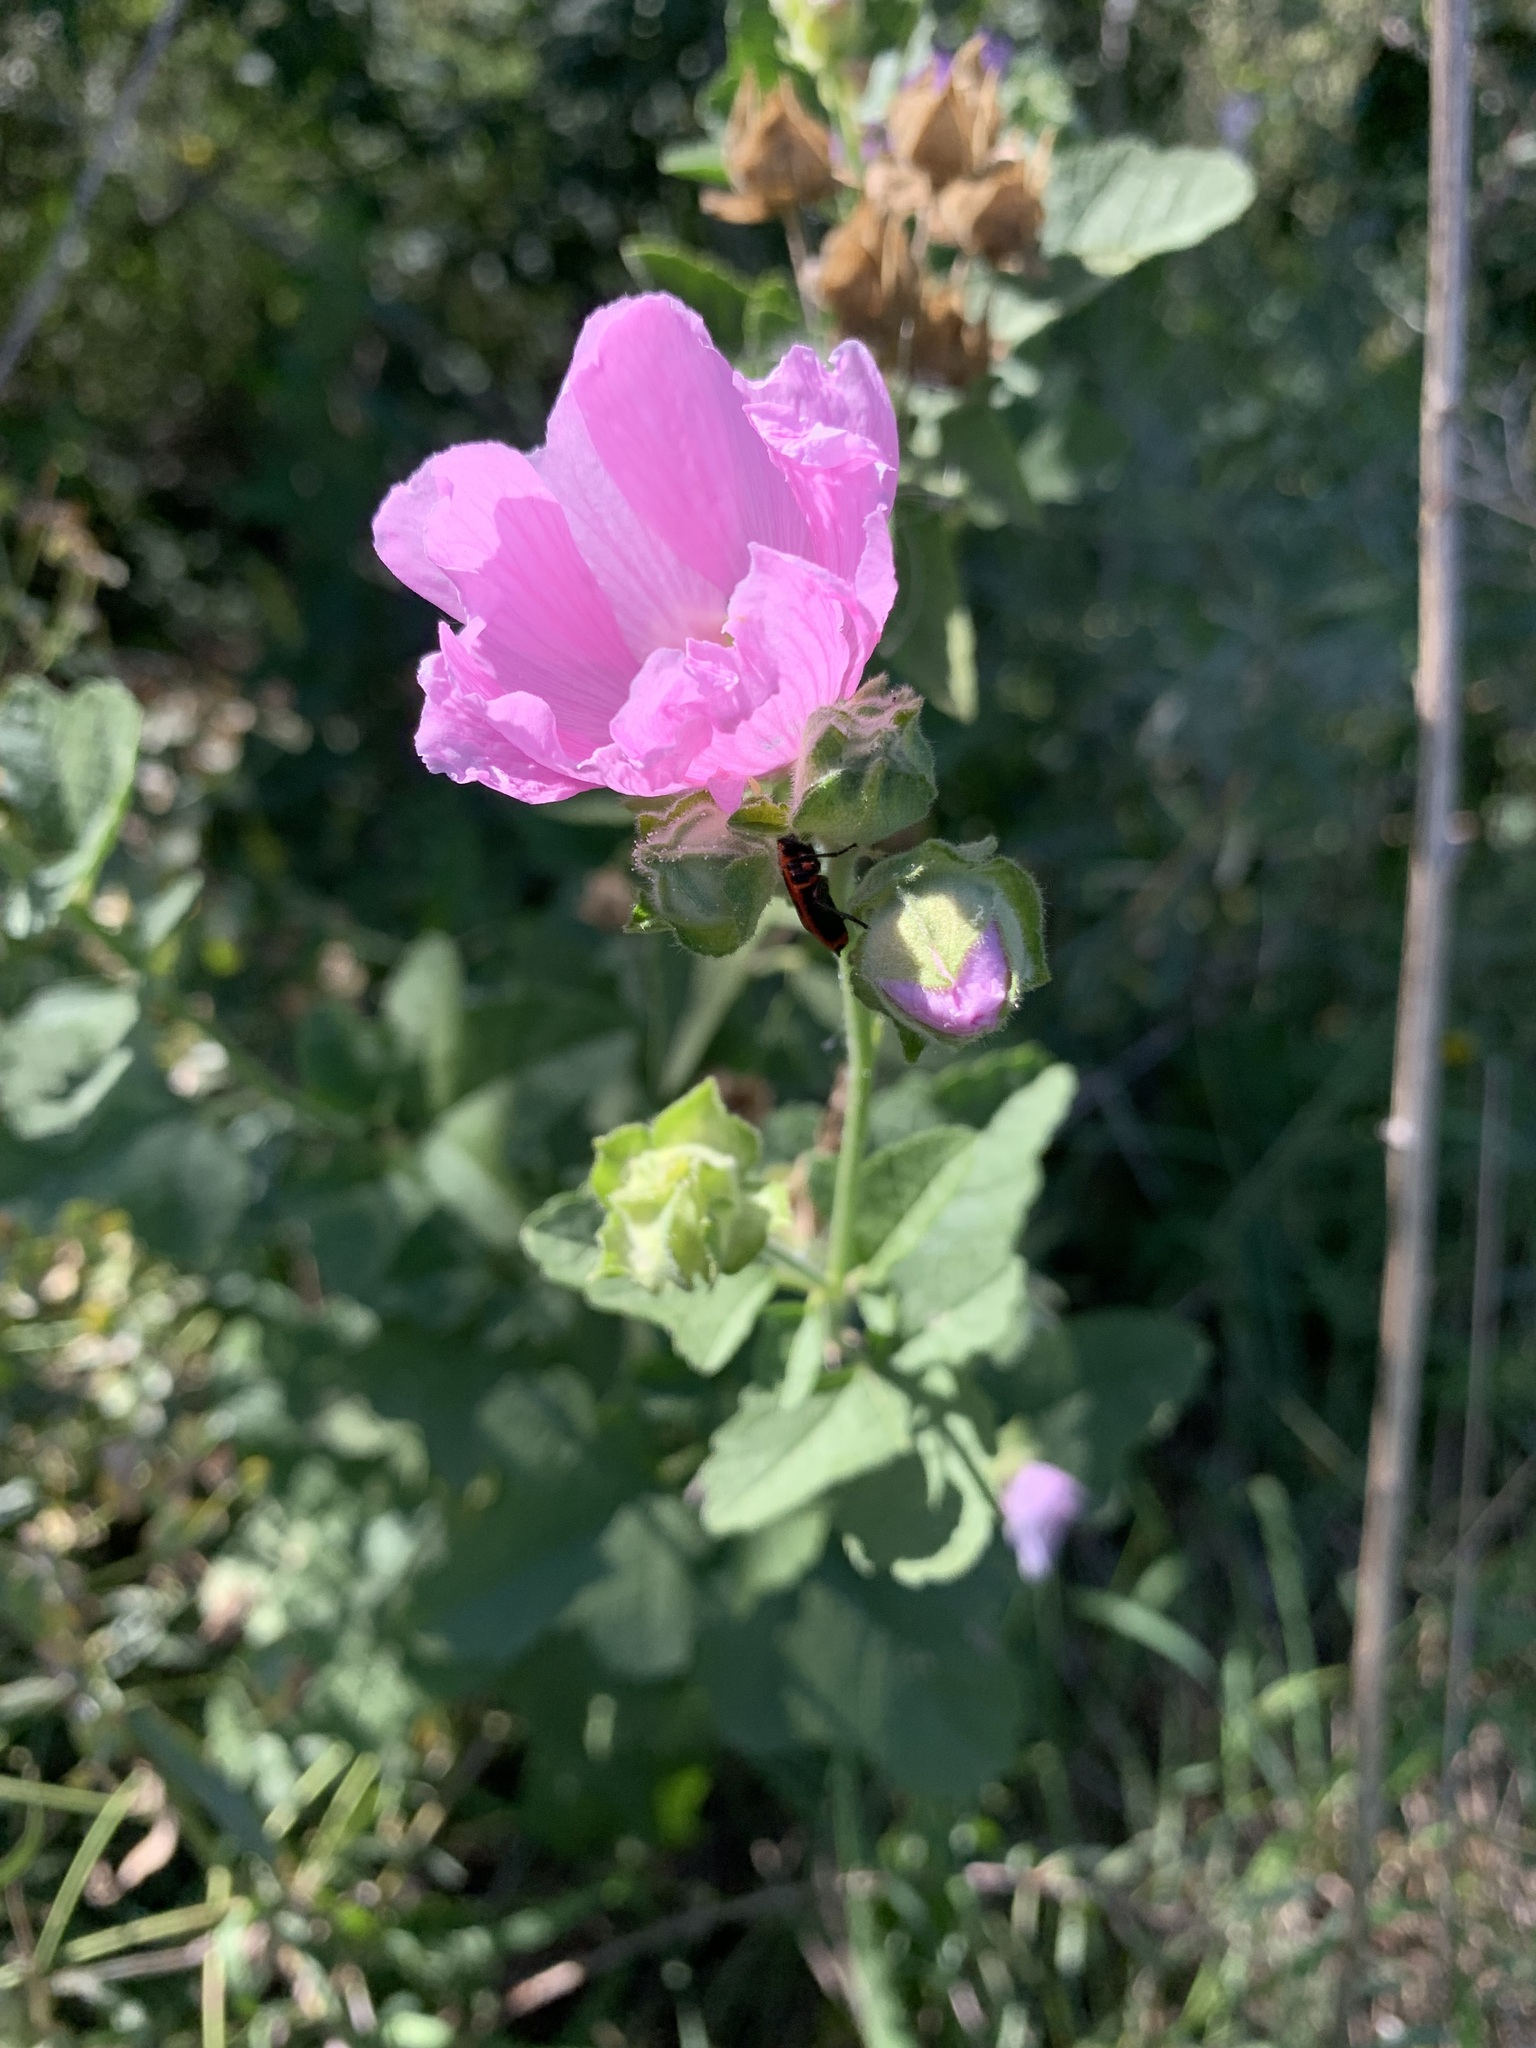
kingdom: Plantae
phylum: Tracheophyta
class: Magnoliopsida
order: Malvales
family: Malvaceae
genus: Malva
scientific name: Malva thuringiaca
